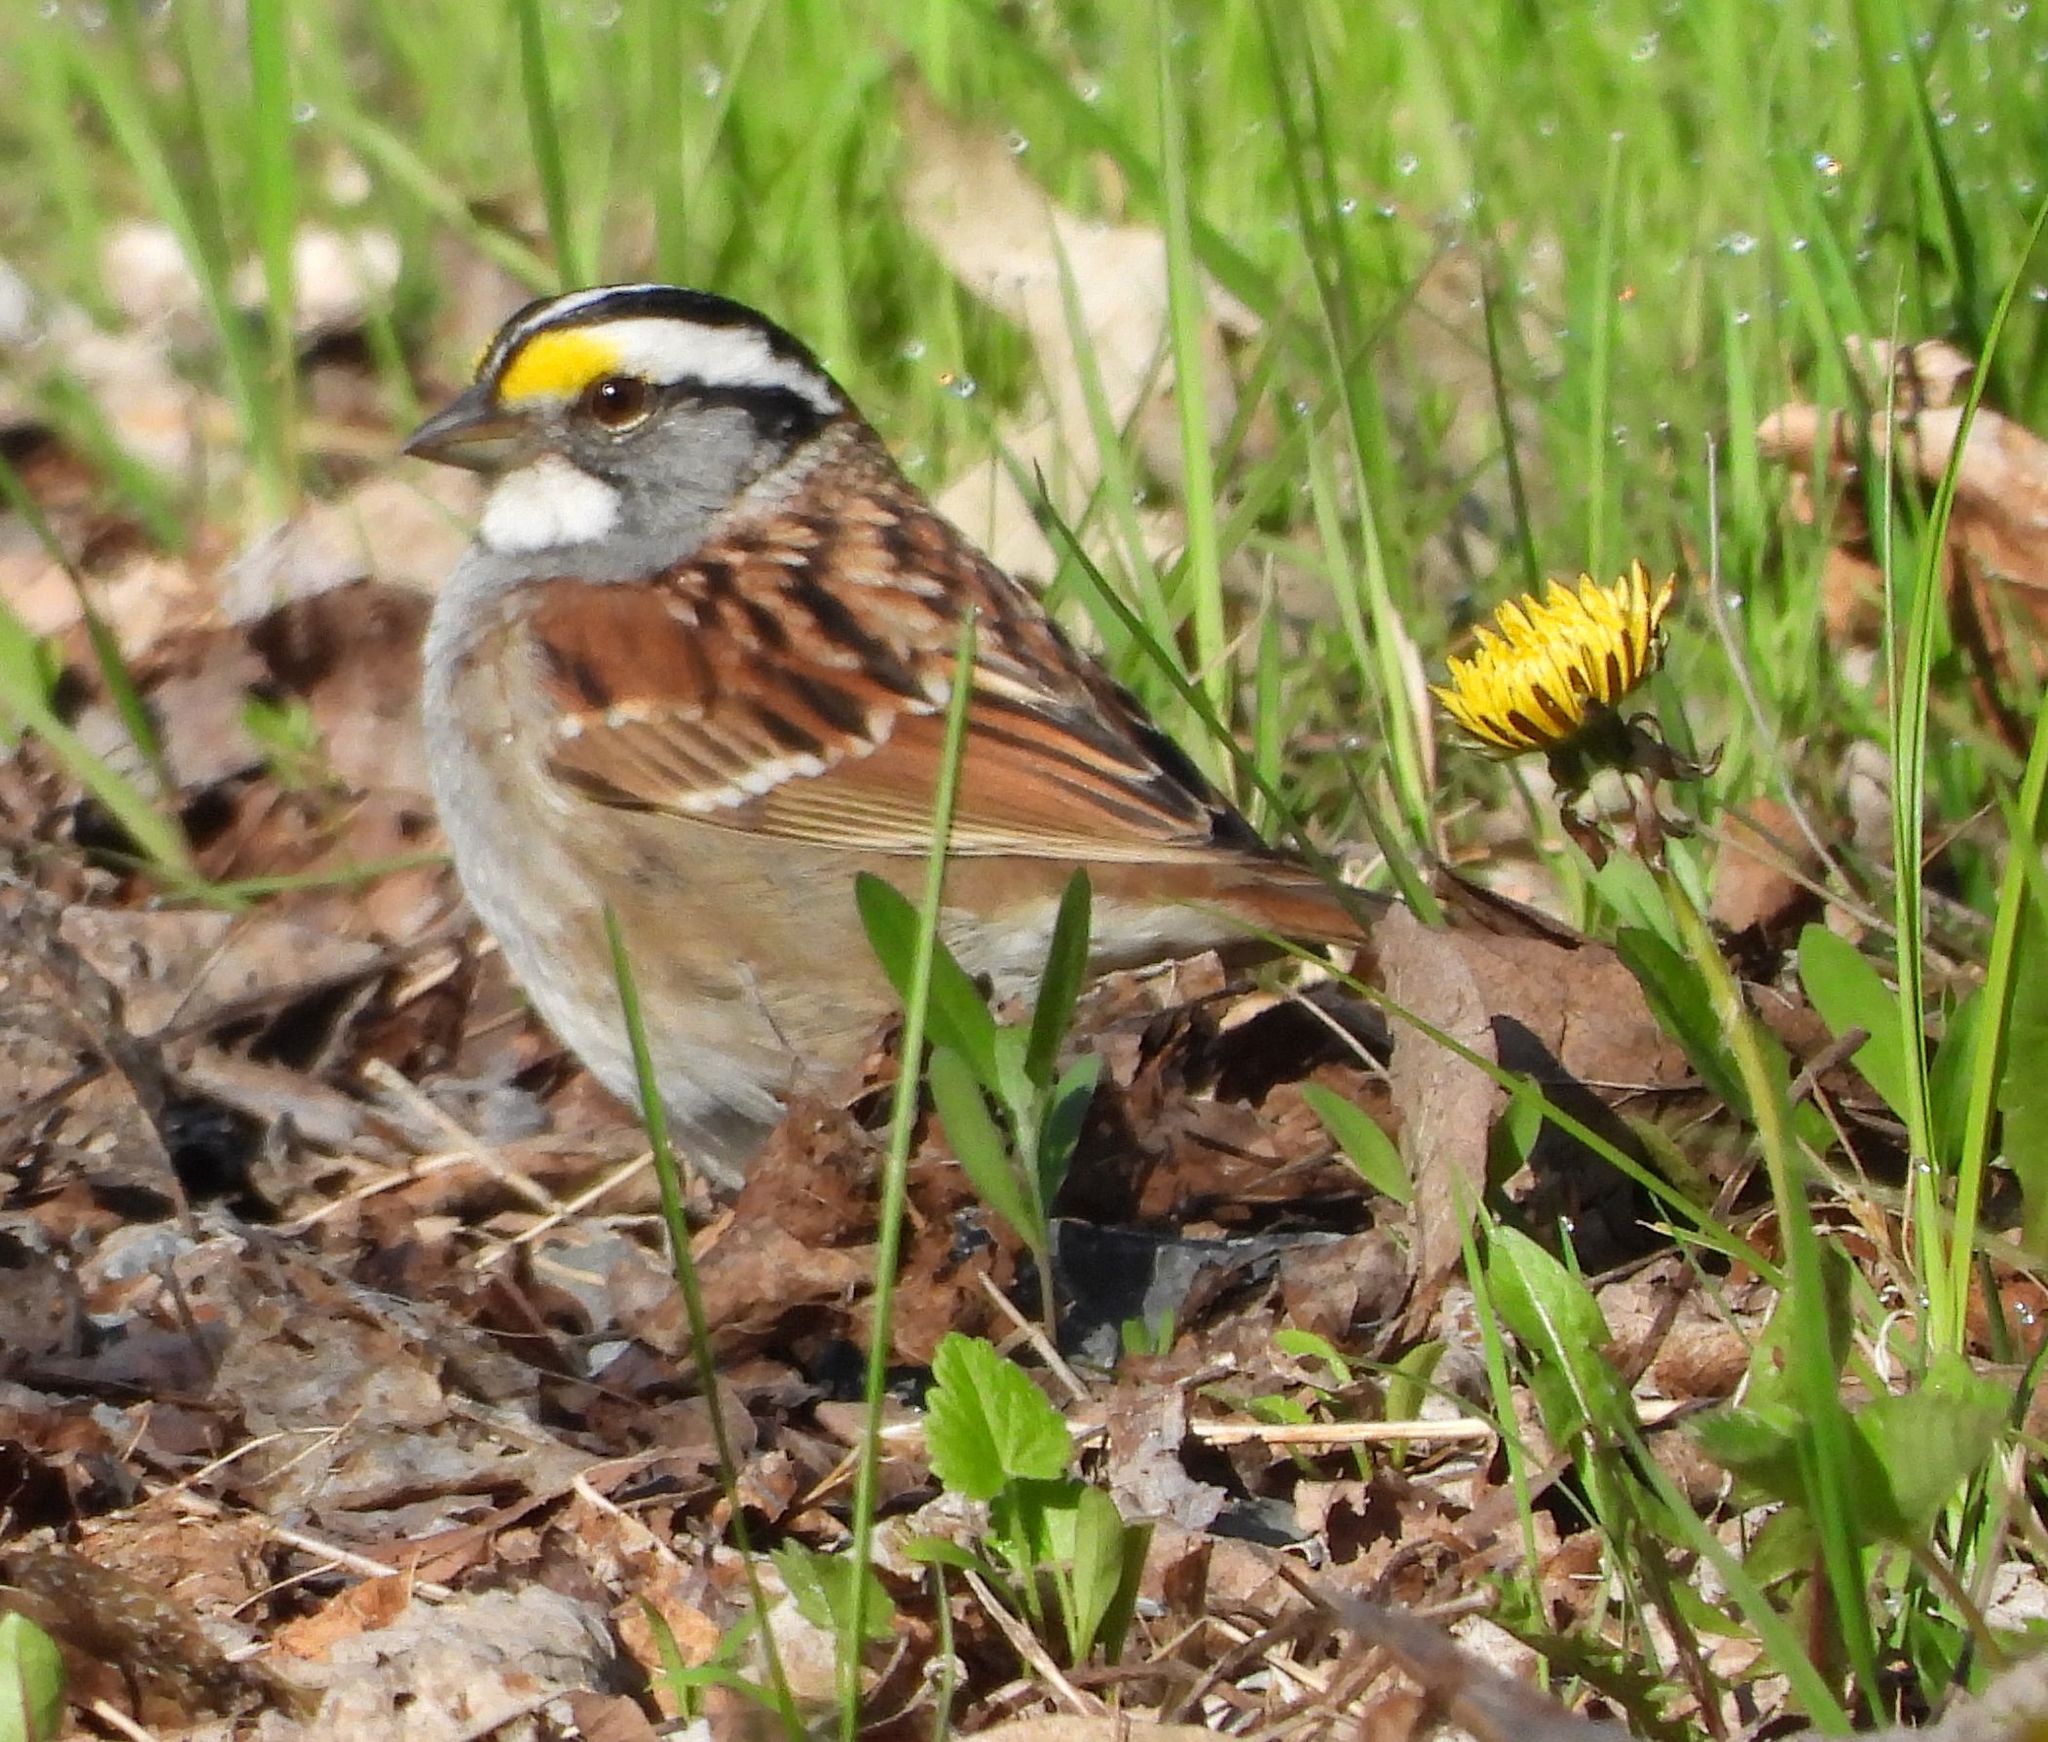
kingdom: Animalia
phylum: Chordata
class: Aves
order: Passeriformes
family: Passerellidae
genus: Zonotrichia
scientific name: Zonotrichia albicollis
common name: White-throated sparrow
